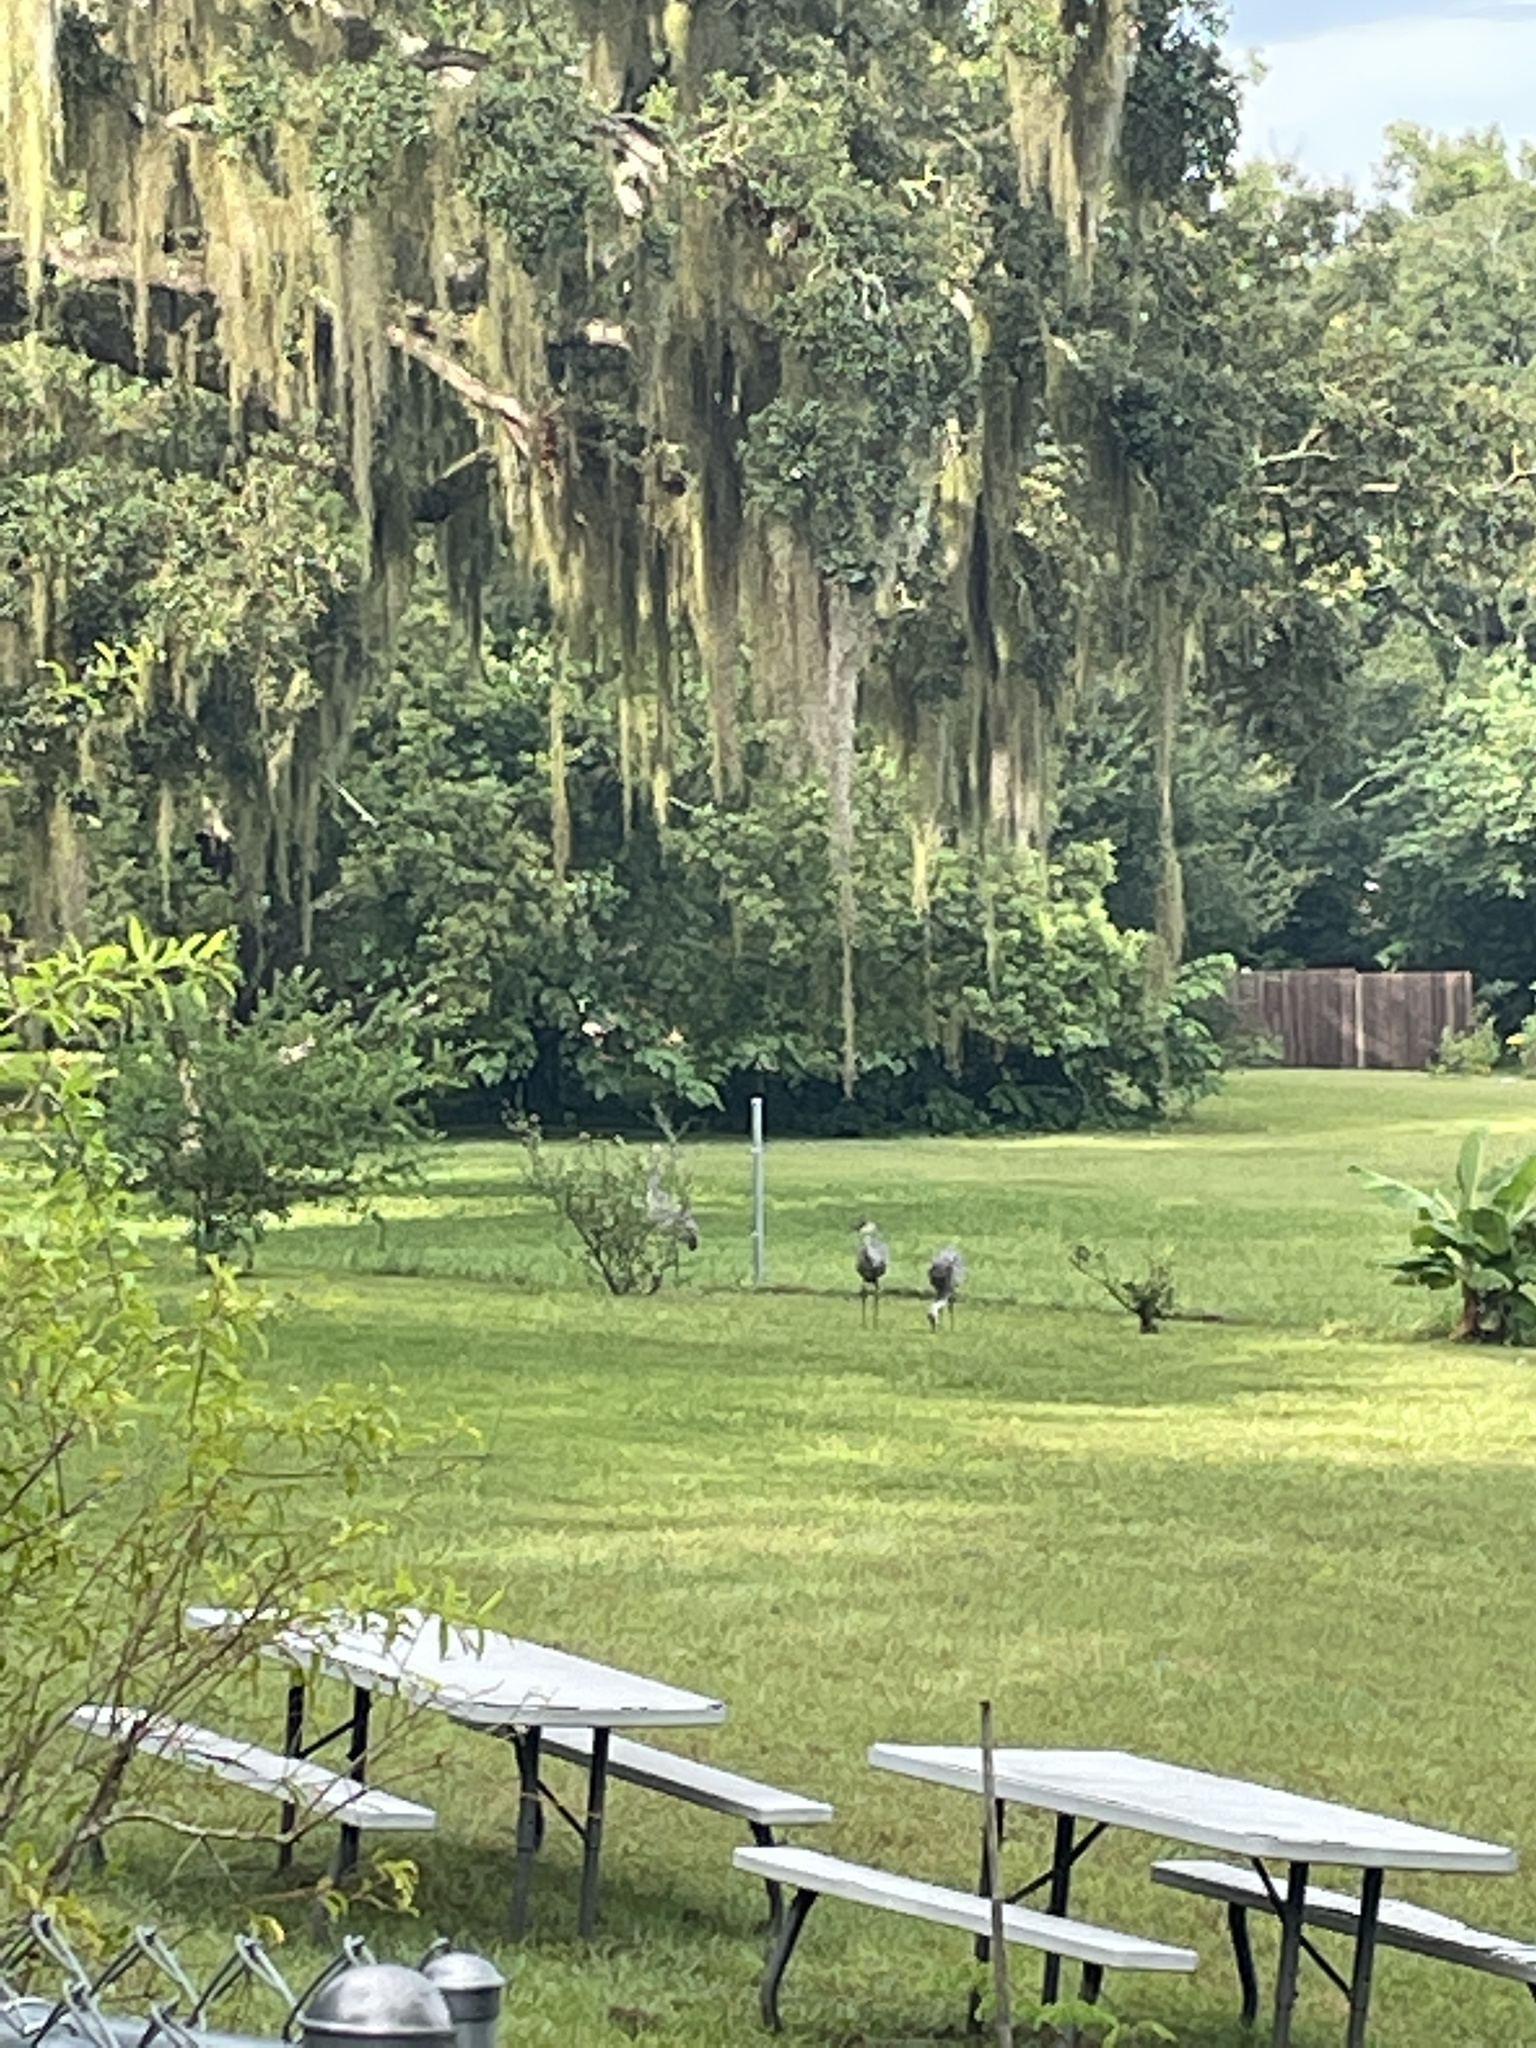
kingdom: Animalia
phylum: Chordata
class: Aves
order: Gruiformes
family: Gruidae
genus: Grus
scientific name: Grus canadensis
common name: Sandhill crane
